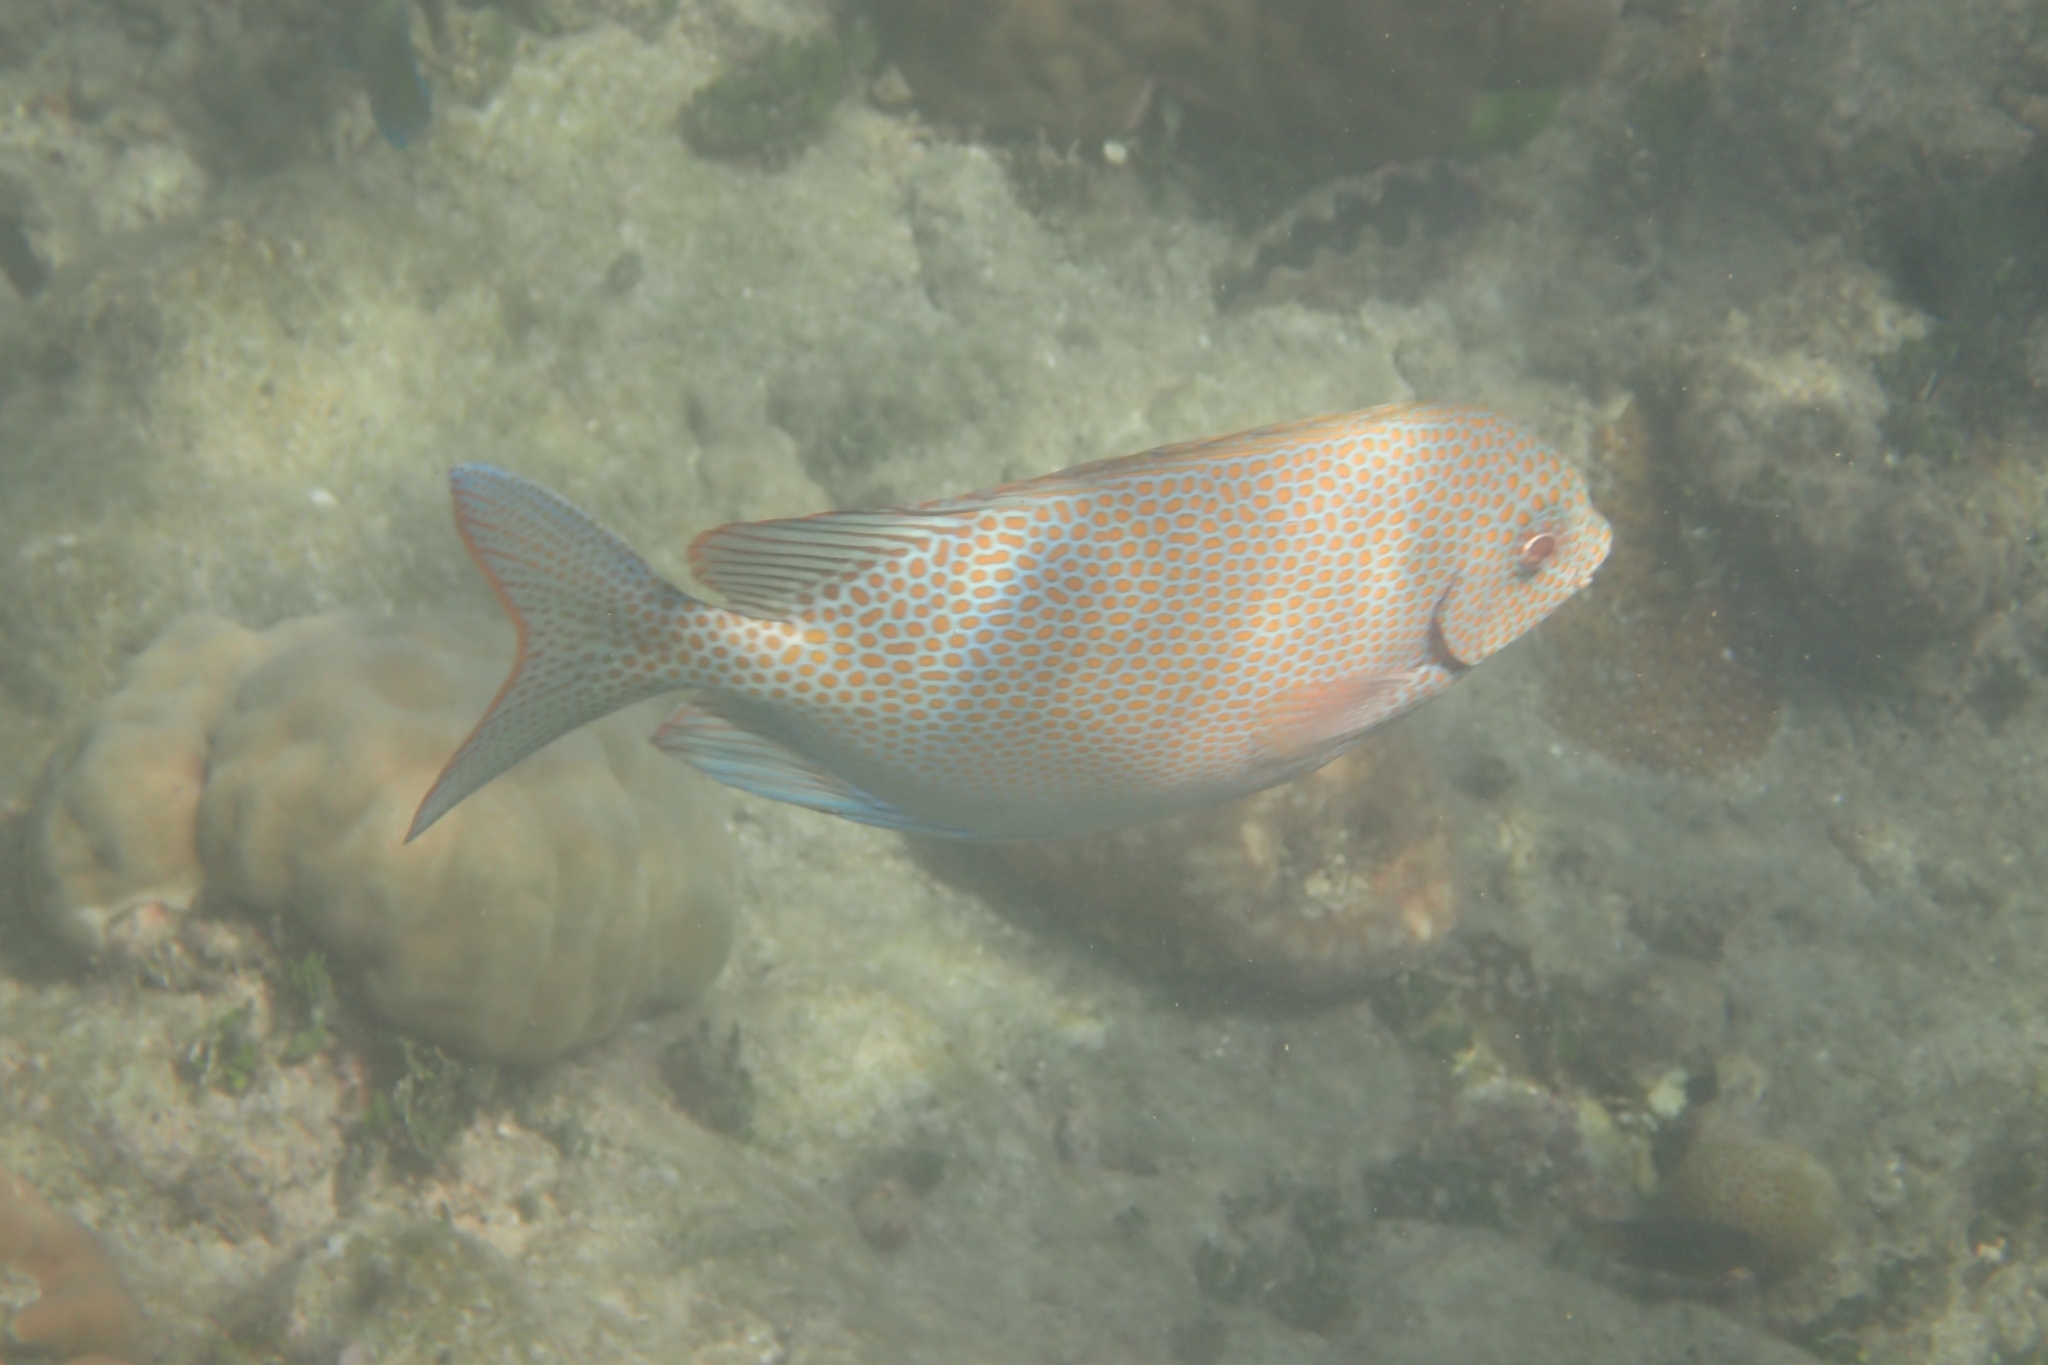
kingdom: Animalia
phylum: Chordata
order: Perciformes
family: Siganidae
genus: Siganus
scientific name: Siganus punctatus
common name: Gold-spotted rabbitfish
